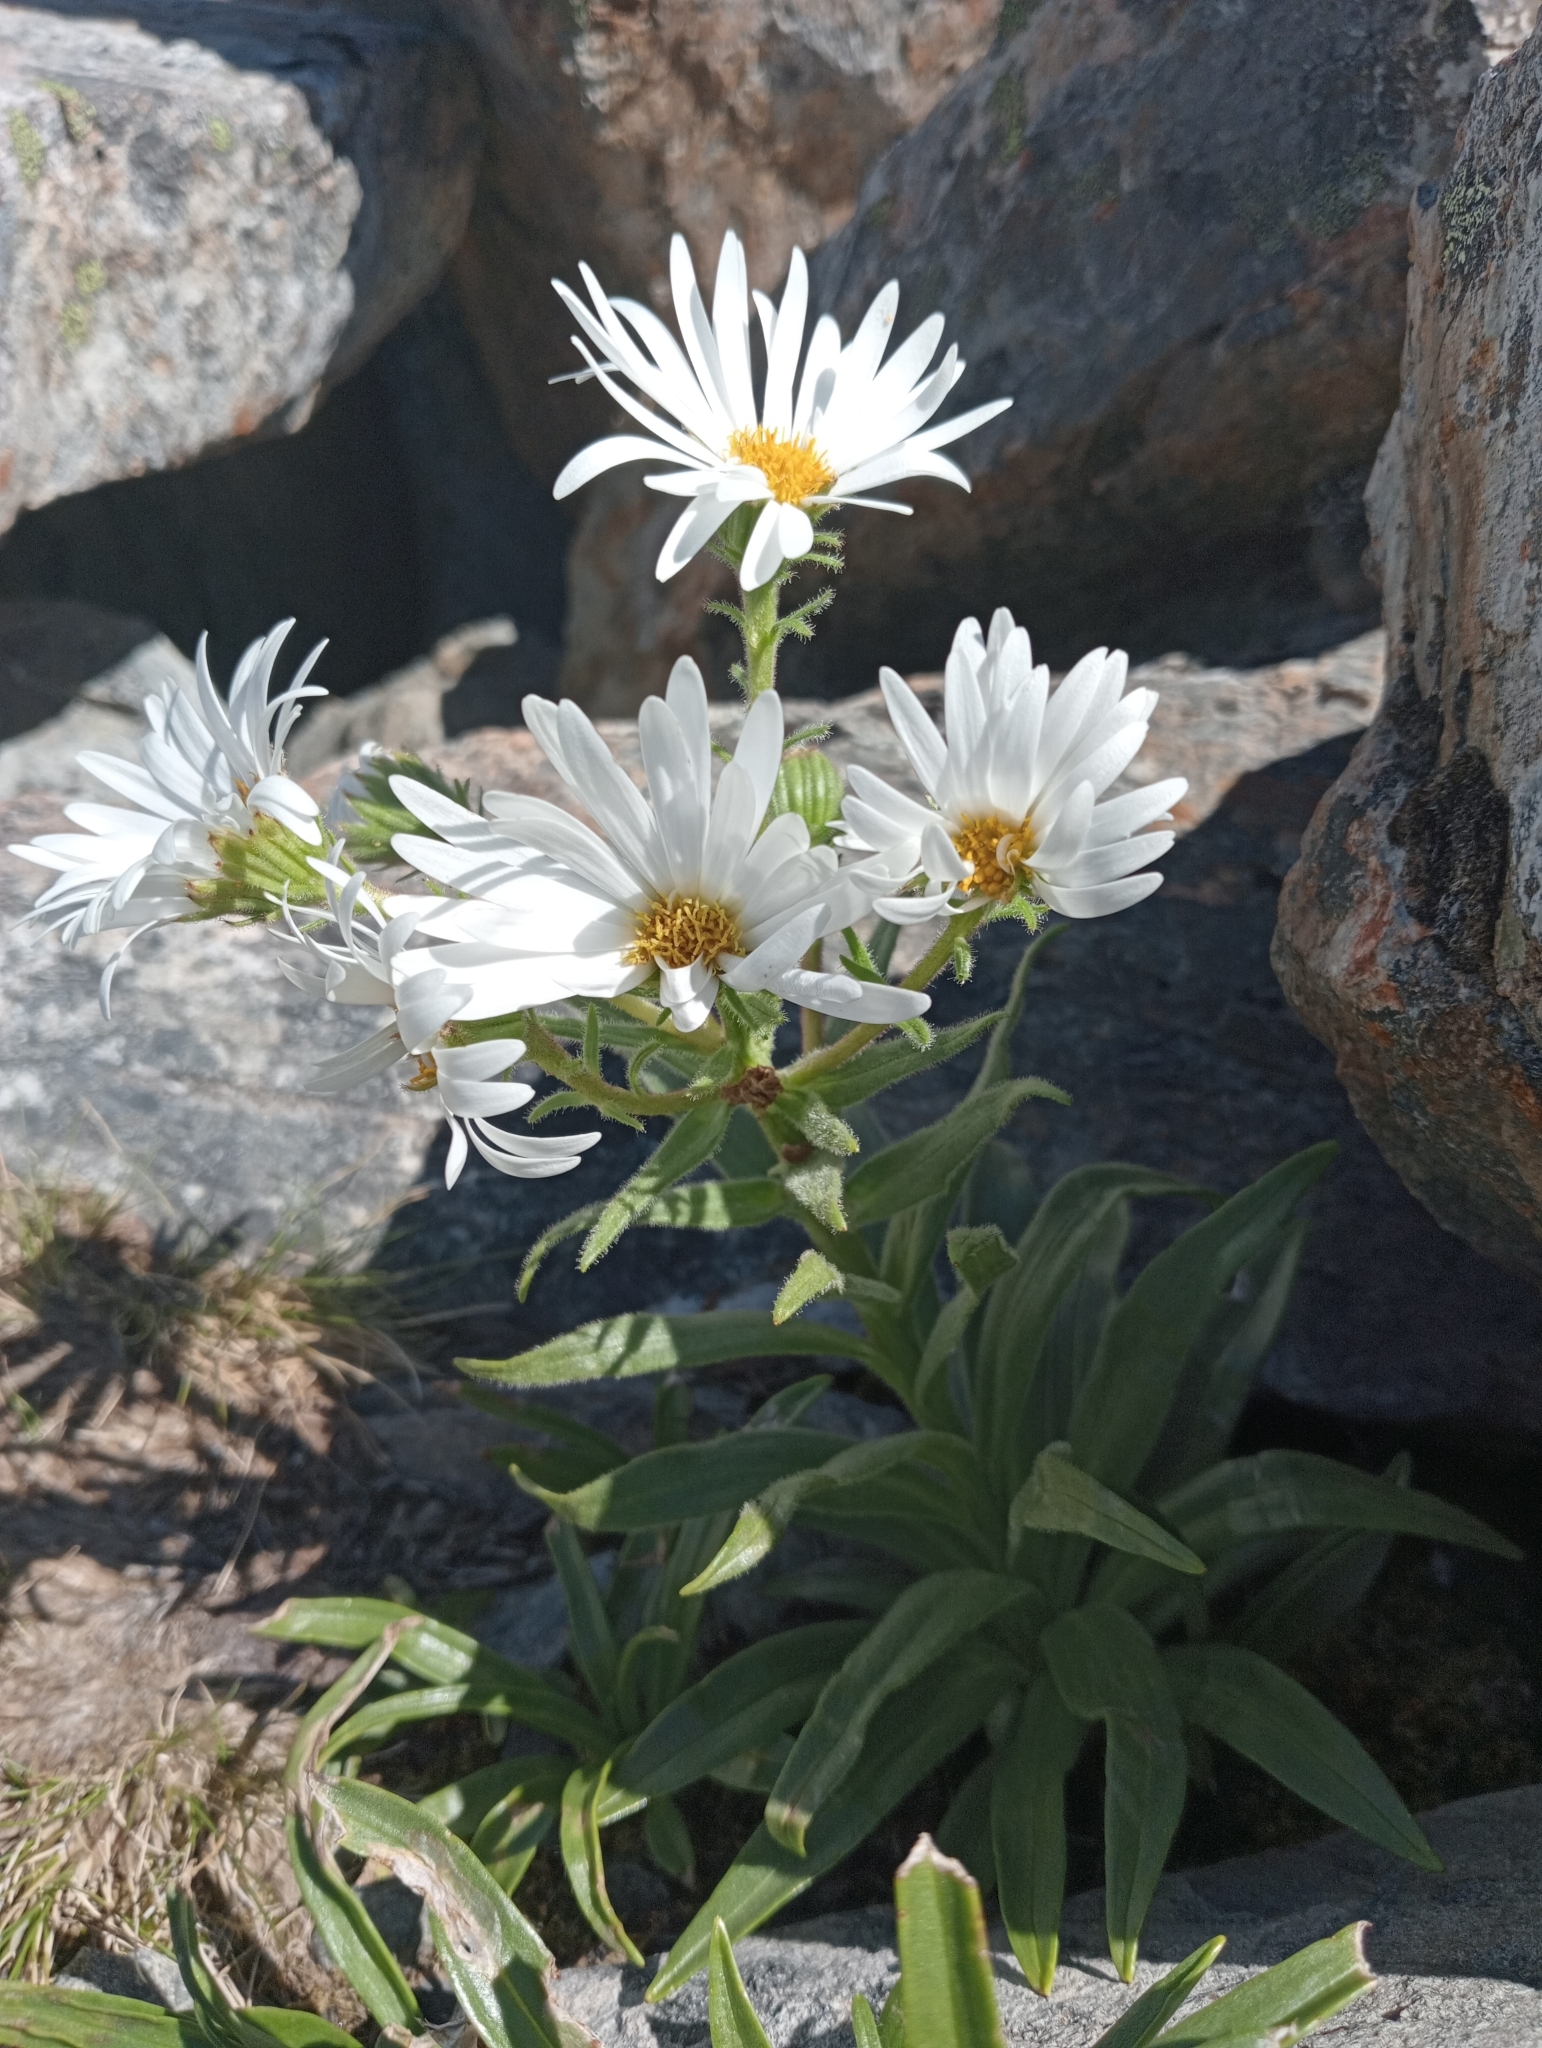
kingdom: Plantae
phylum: Tracheophyta
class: Magnoliopsida
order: Asterales
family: Asteraceae
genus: Dolichoglottis
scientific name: Dolichoglottis scorzoneroides
